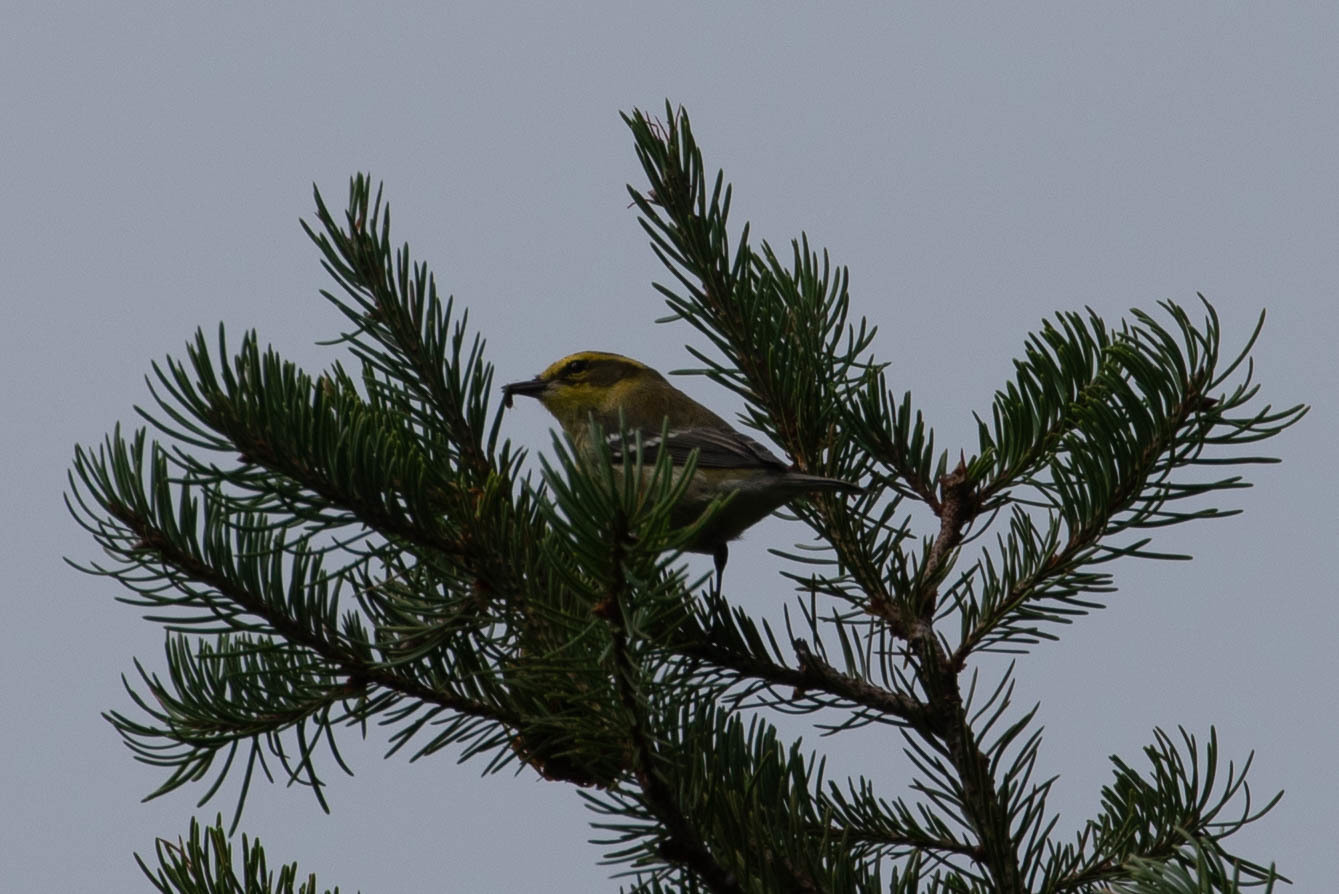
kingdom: Animalia
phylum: Chordata
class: Aves
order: Passeriformes
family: Parulidae
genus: Setophaga
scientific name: Setophaga townsendi
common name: Townsend's warbler
